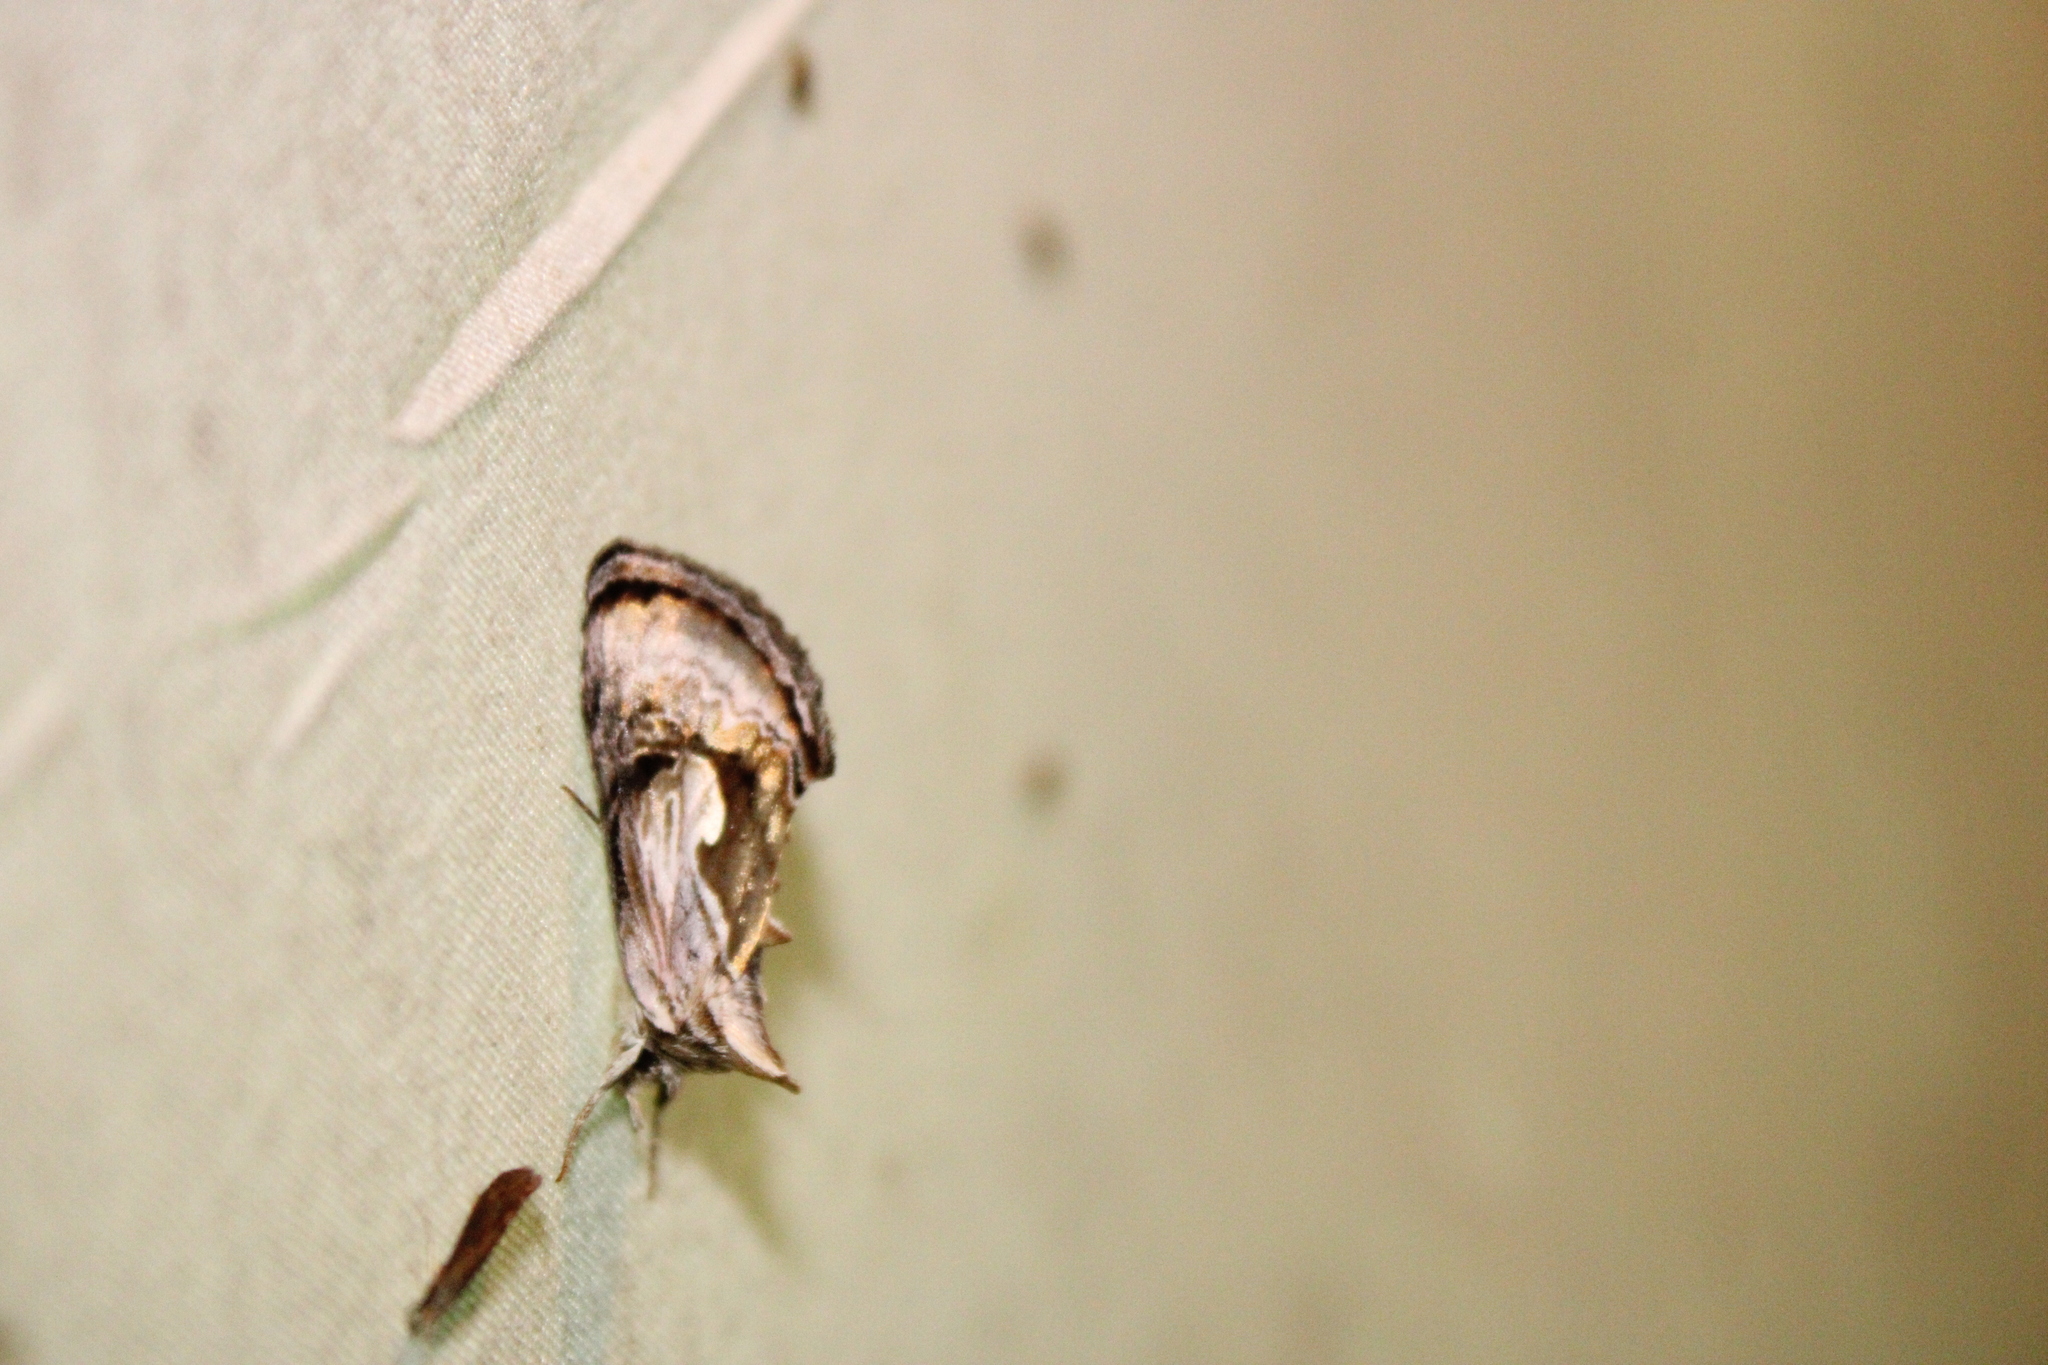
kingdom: Animalia
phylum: Arthropoda
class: Insecta
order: Lepidoptera
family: Noctuidae
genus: Chrysanympha
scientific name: Chrysanympha formosa
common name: Formosa looper moth
